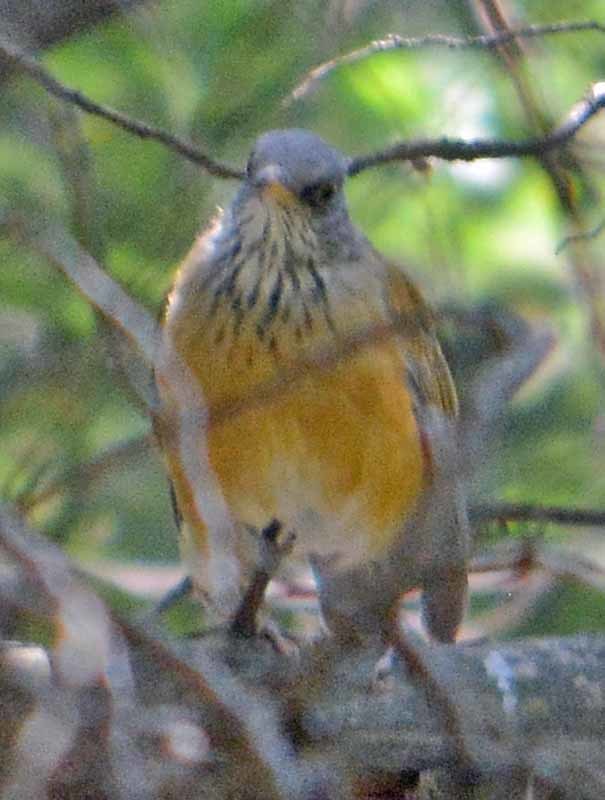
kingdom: Animalia
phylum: Chordata
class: Aves
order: Passeriformes
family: Turdidae
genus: Turdus
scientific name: Turdus rufopalliatus
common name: Rufous-backed robin
